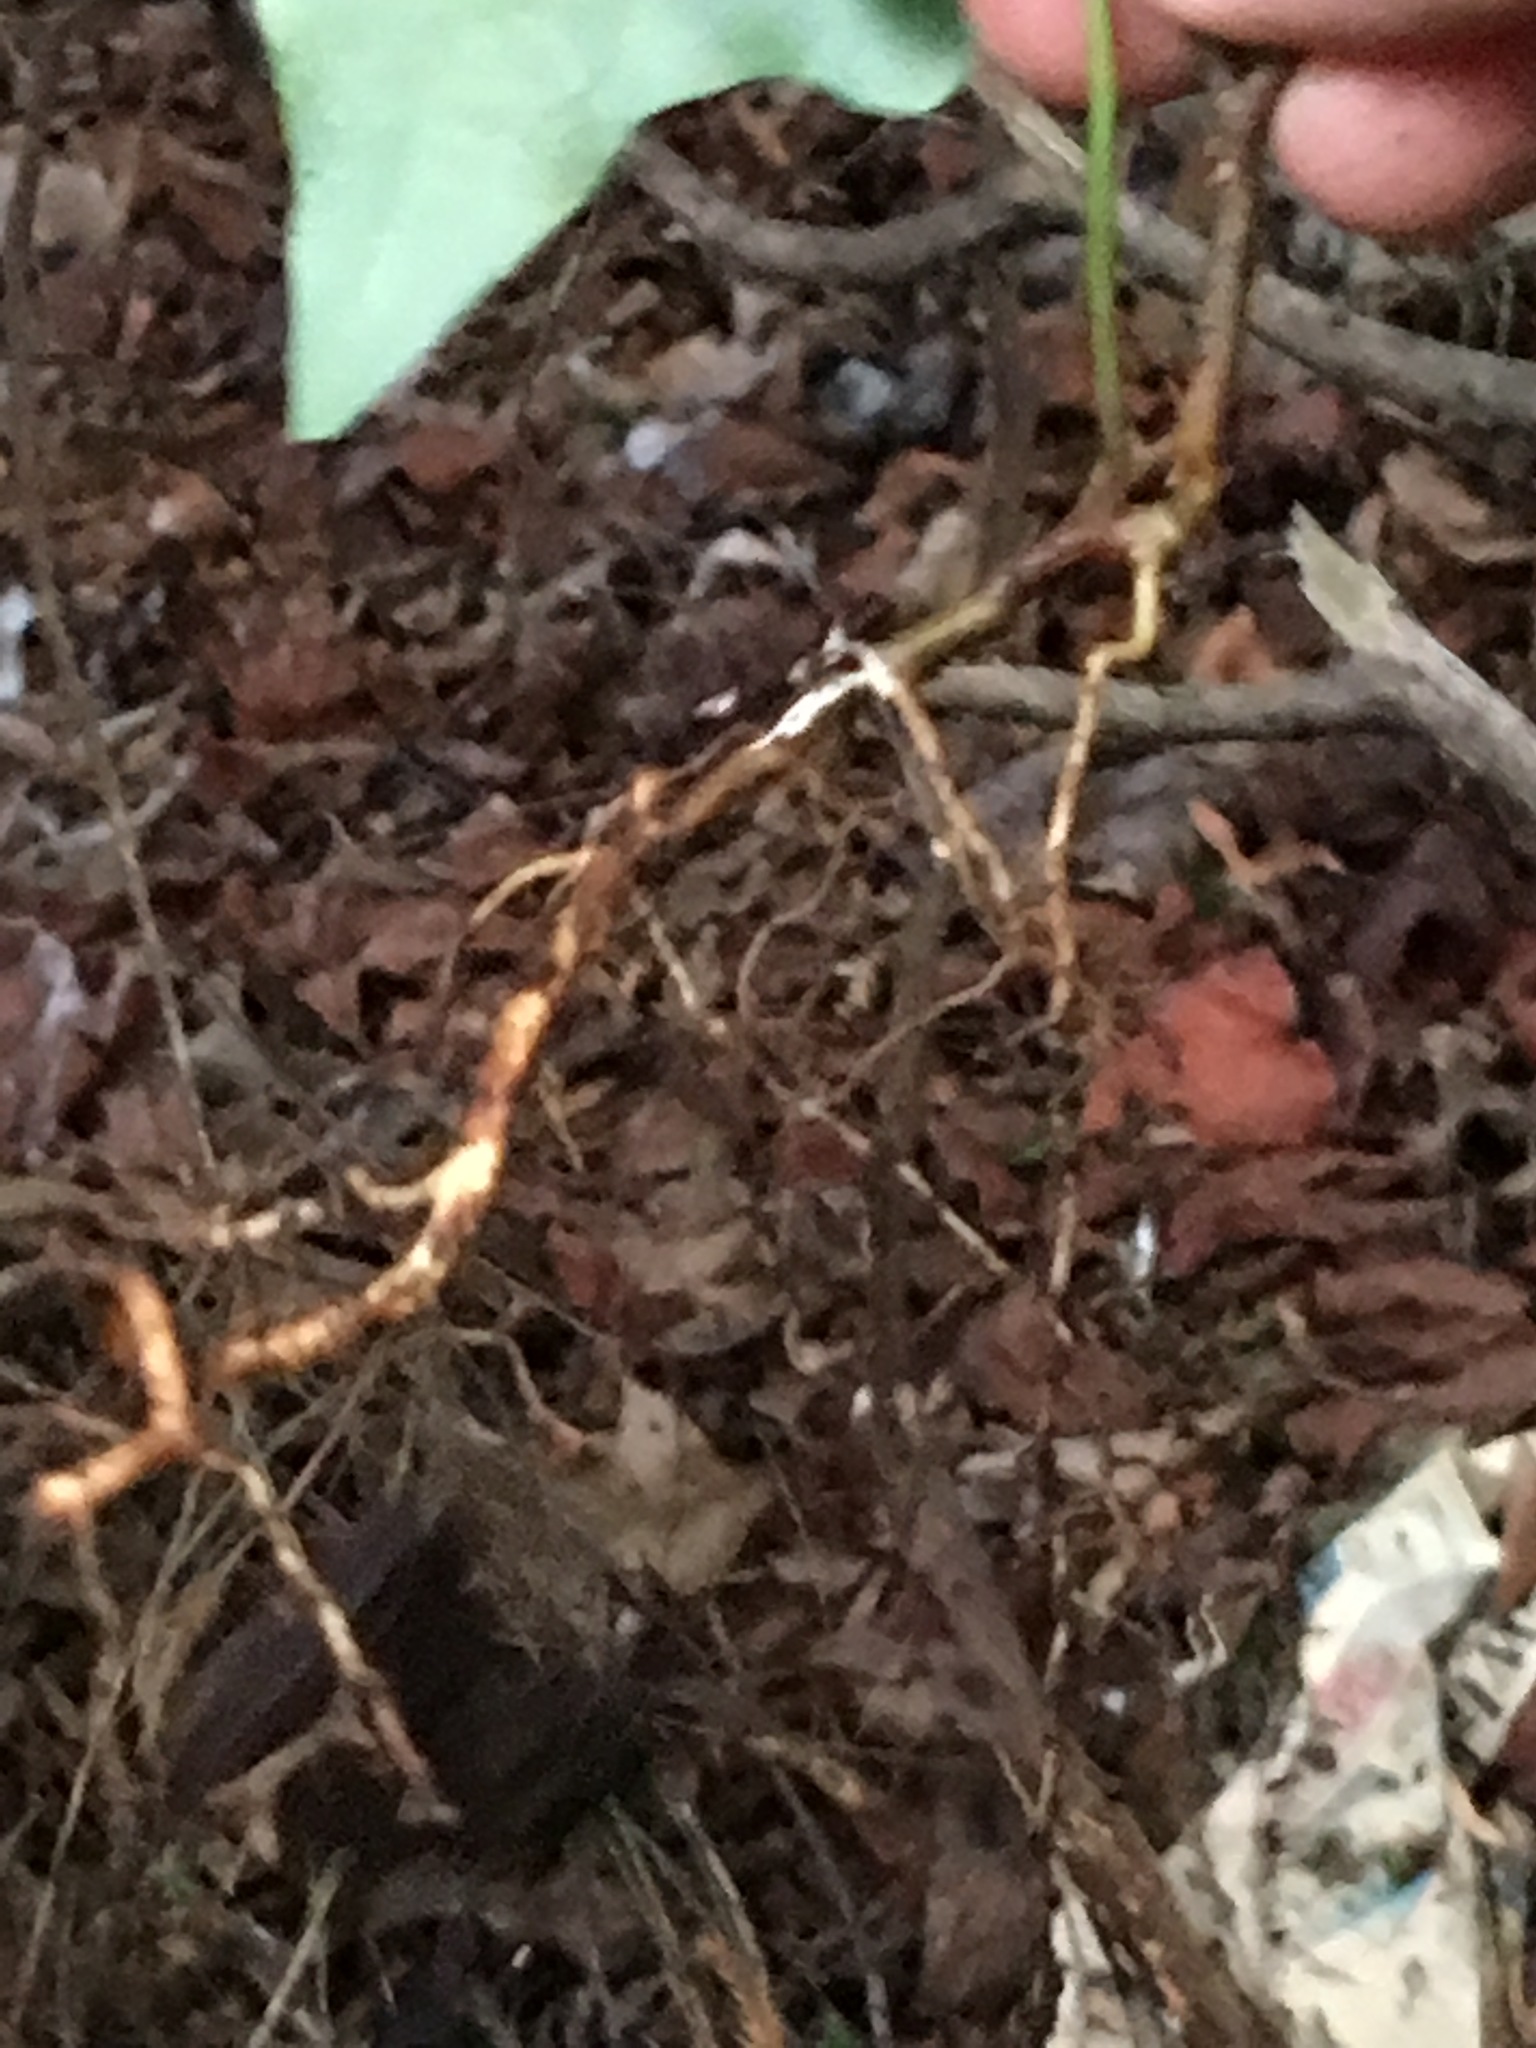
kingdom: Plantae
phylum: Tracheophyta
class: Magnoliopsida
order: Apiales
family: Araliaceae
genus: Hedera
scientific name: Hedera helix
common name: Ivy
